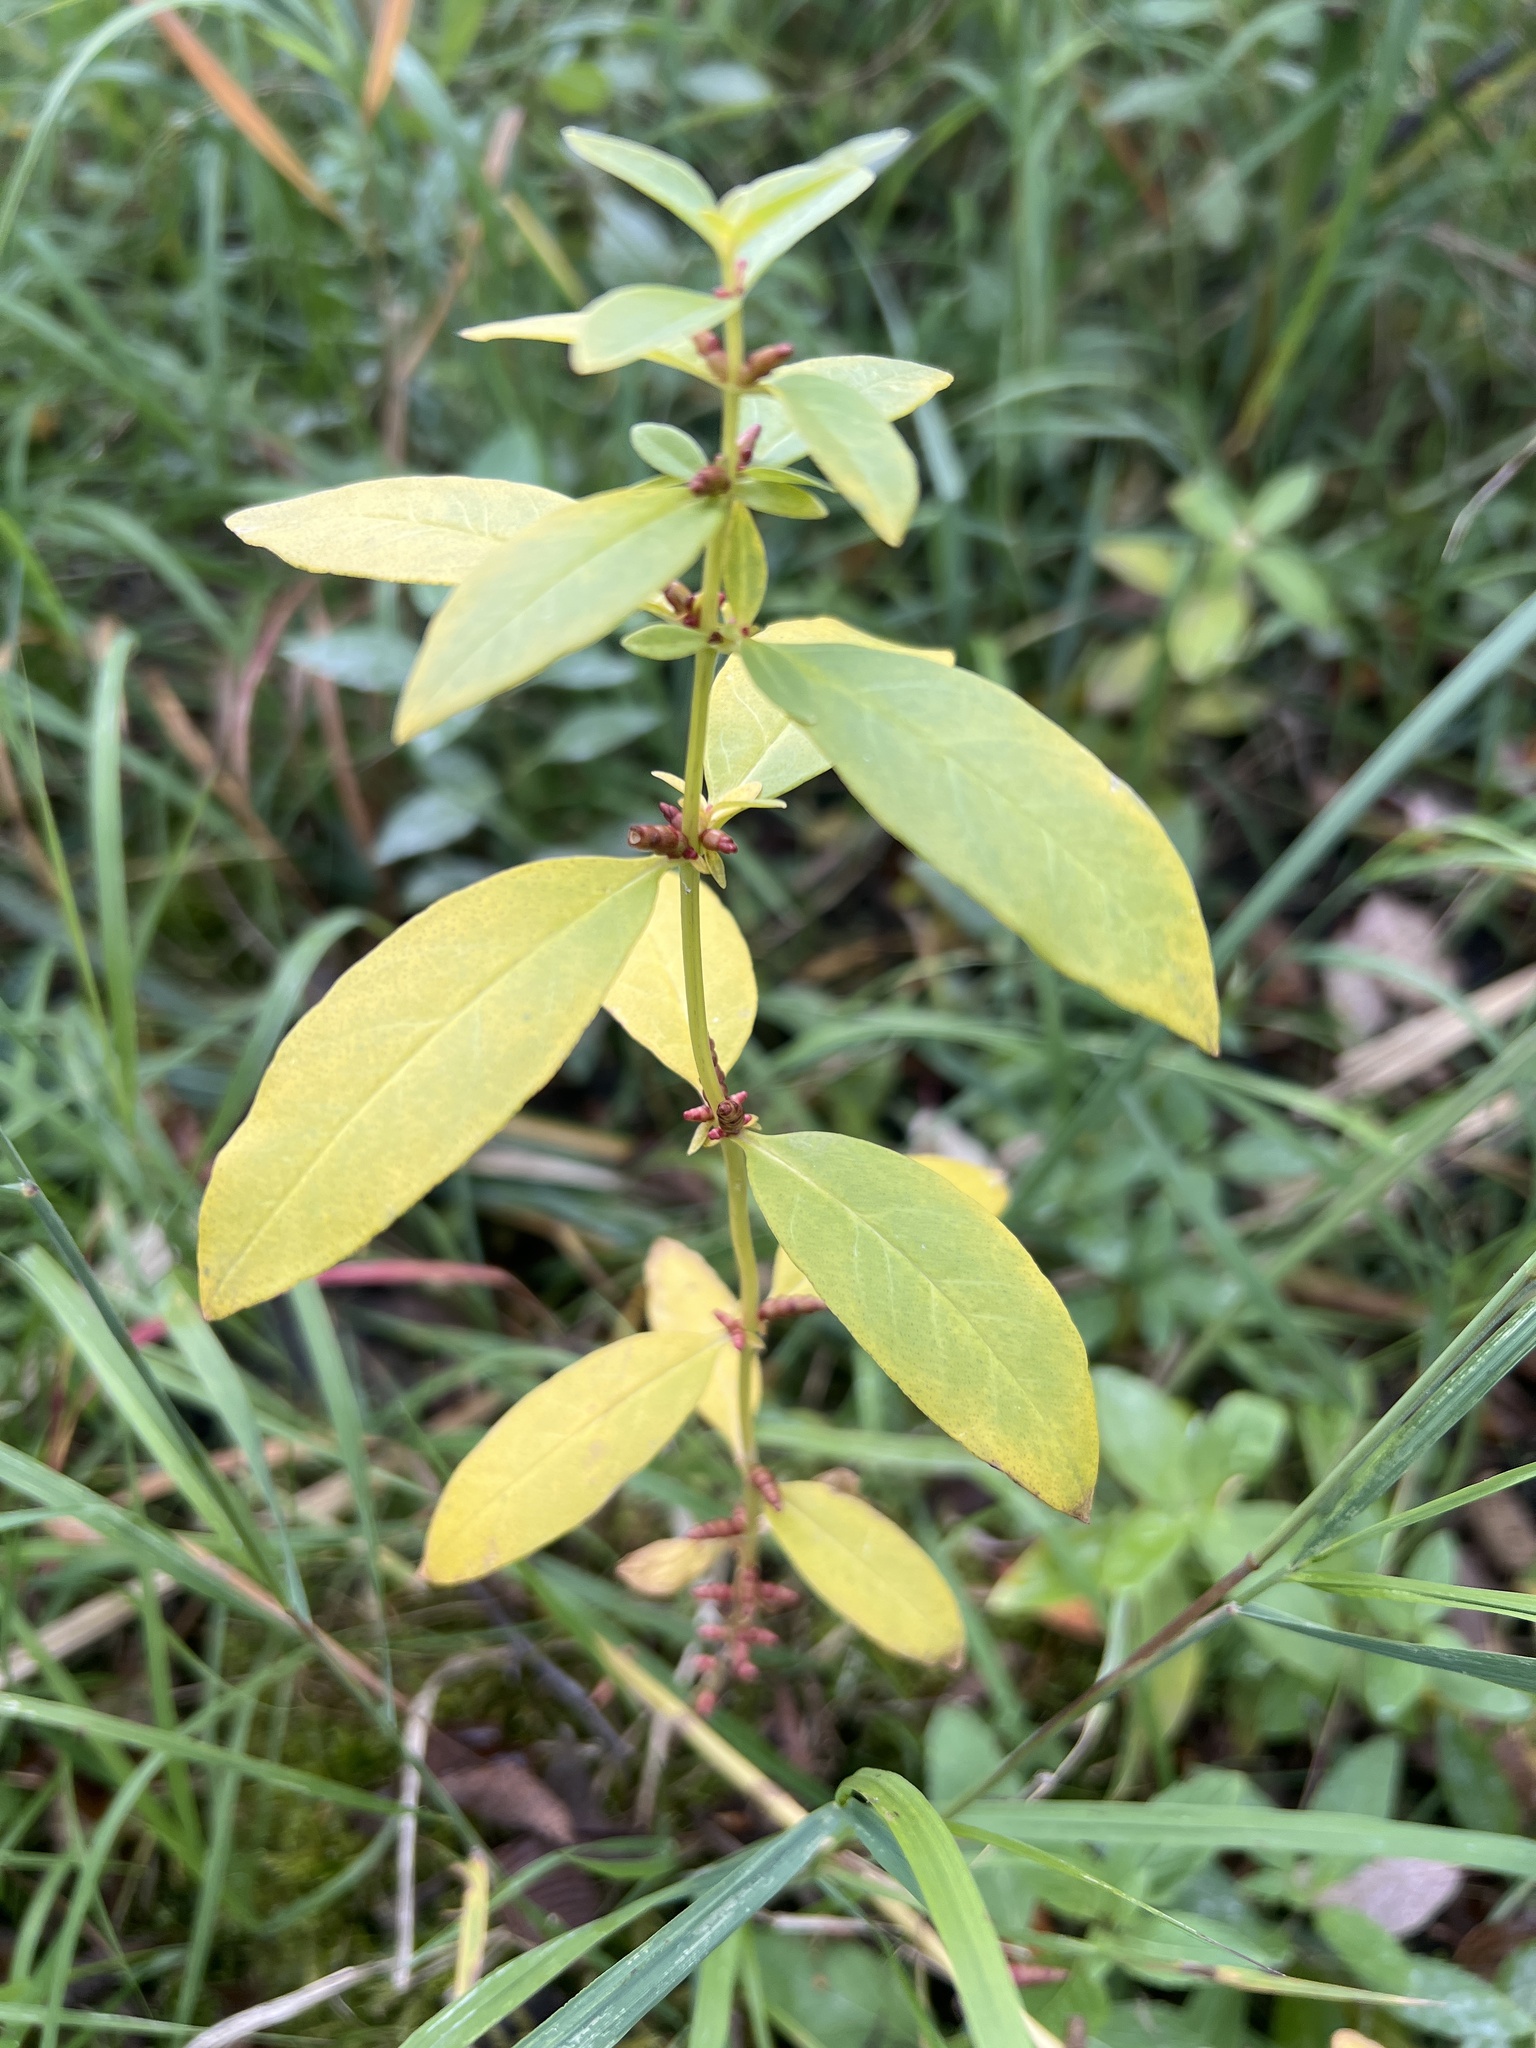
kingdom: Plantae
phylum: Tracheophyta
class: Magnoliopsida
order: Ericales
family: Primulaceae
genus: Lysimachia
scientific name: Lysimachia terrestris
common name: Lake loosestrife
